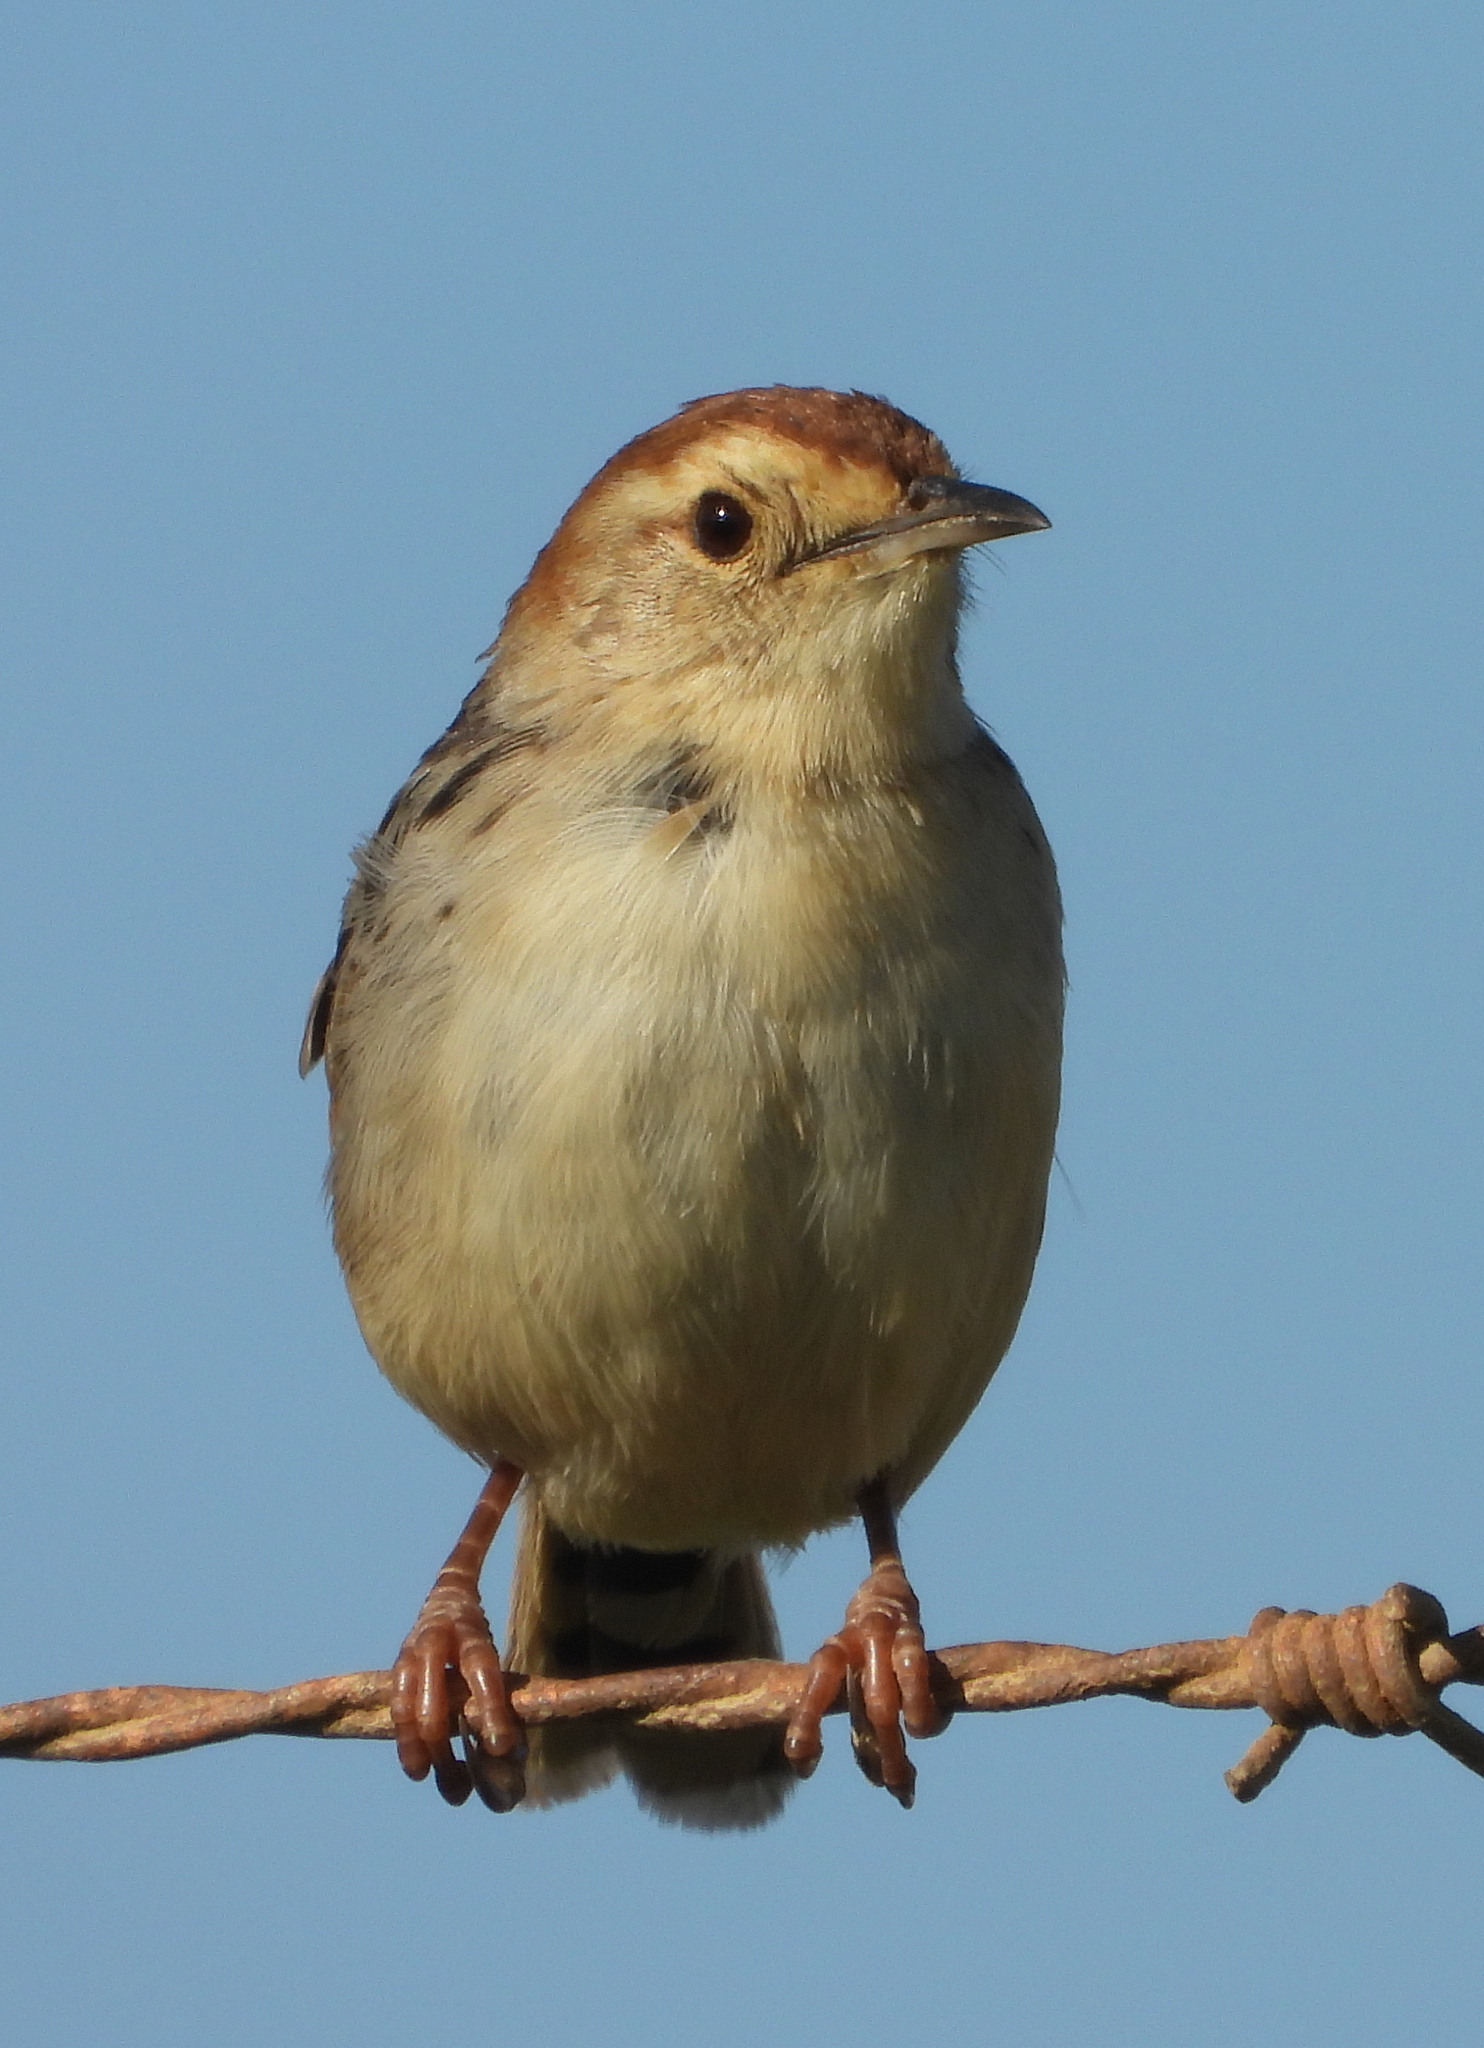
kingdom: Animalia
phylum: Chordata
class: Aves
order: Passeriformes
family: Cisticolidae
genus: Cisticola
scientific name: Cisticola tinniens
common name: Levaillant's cisticola
